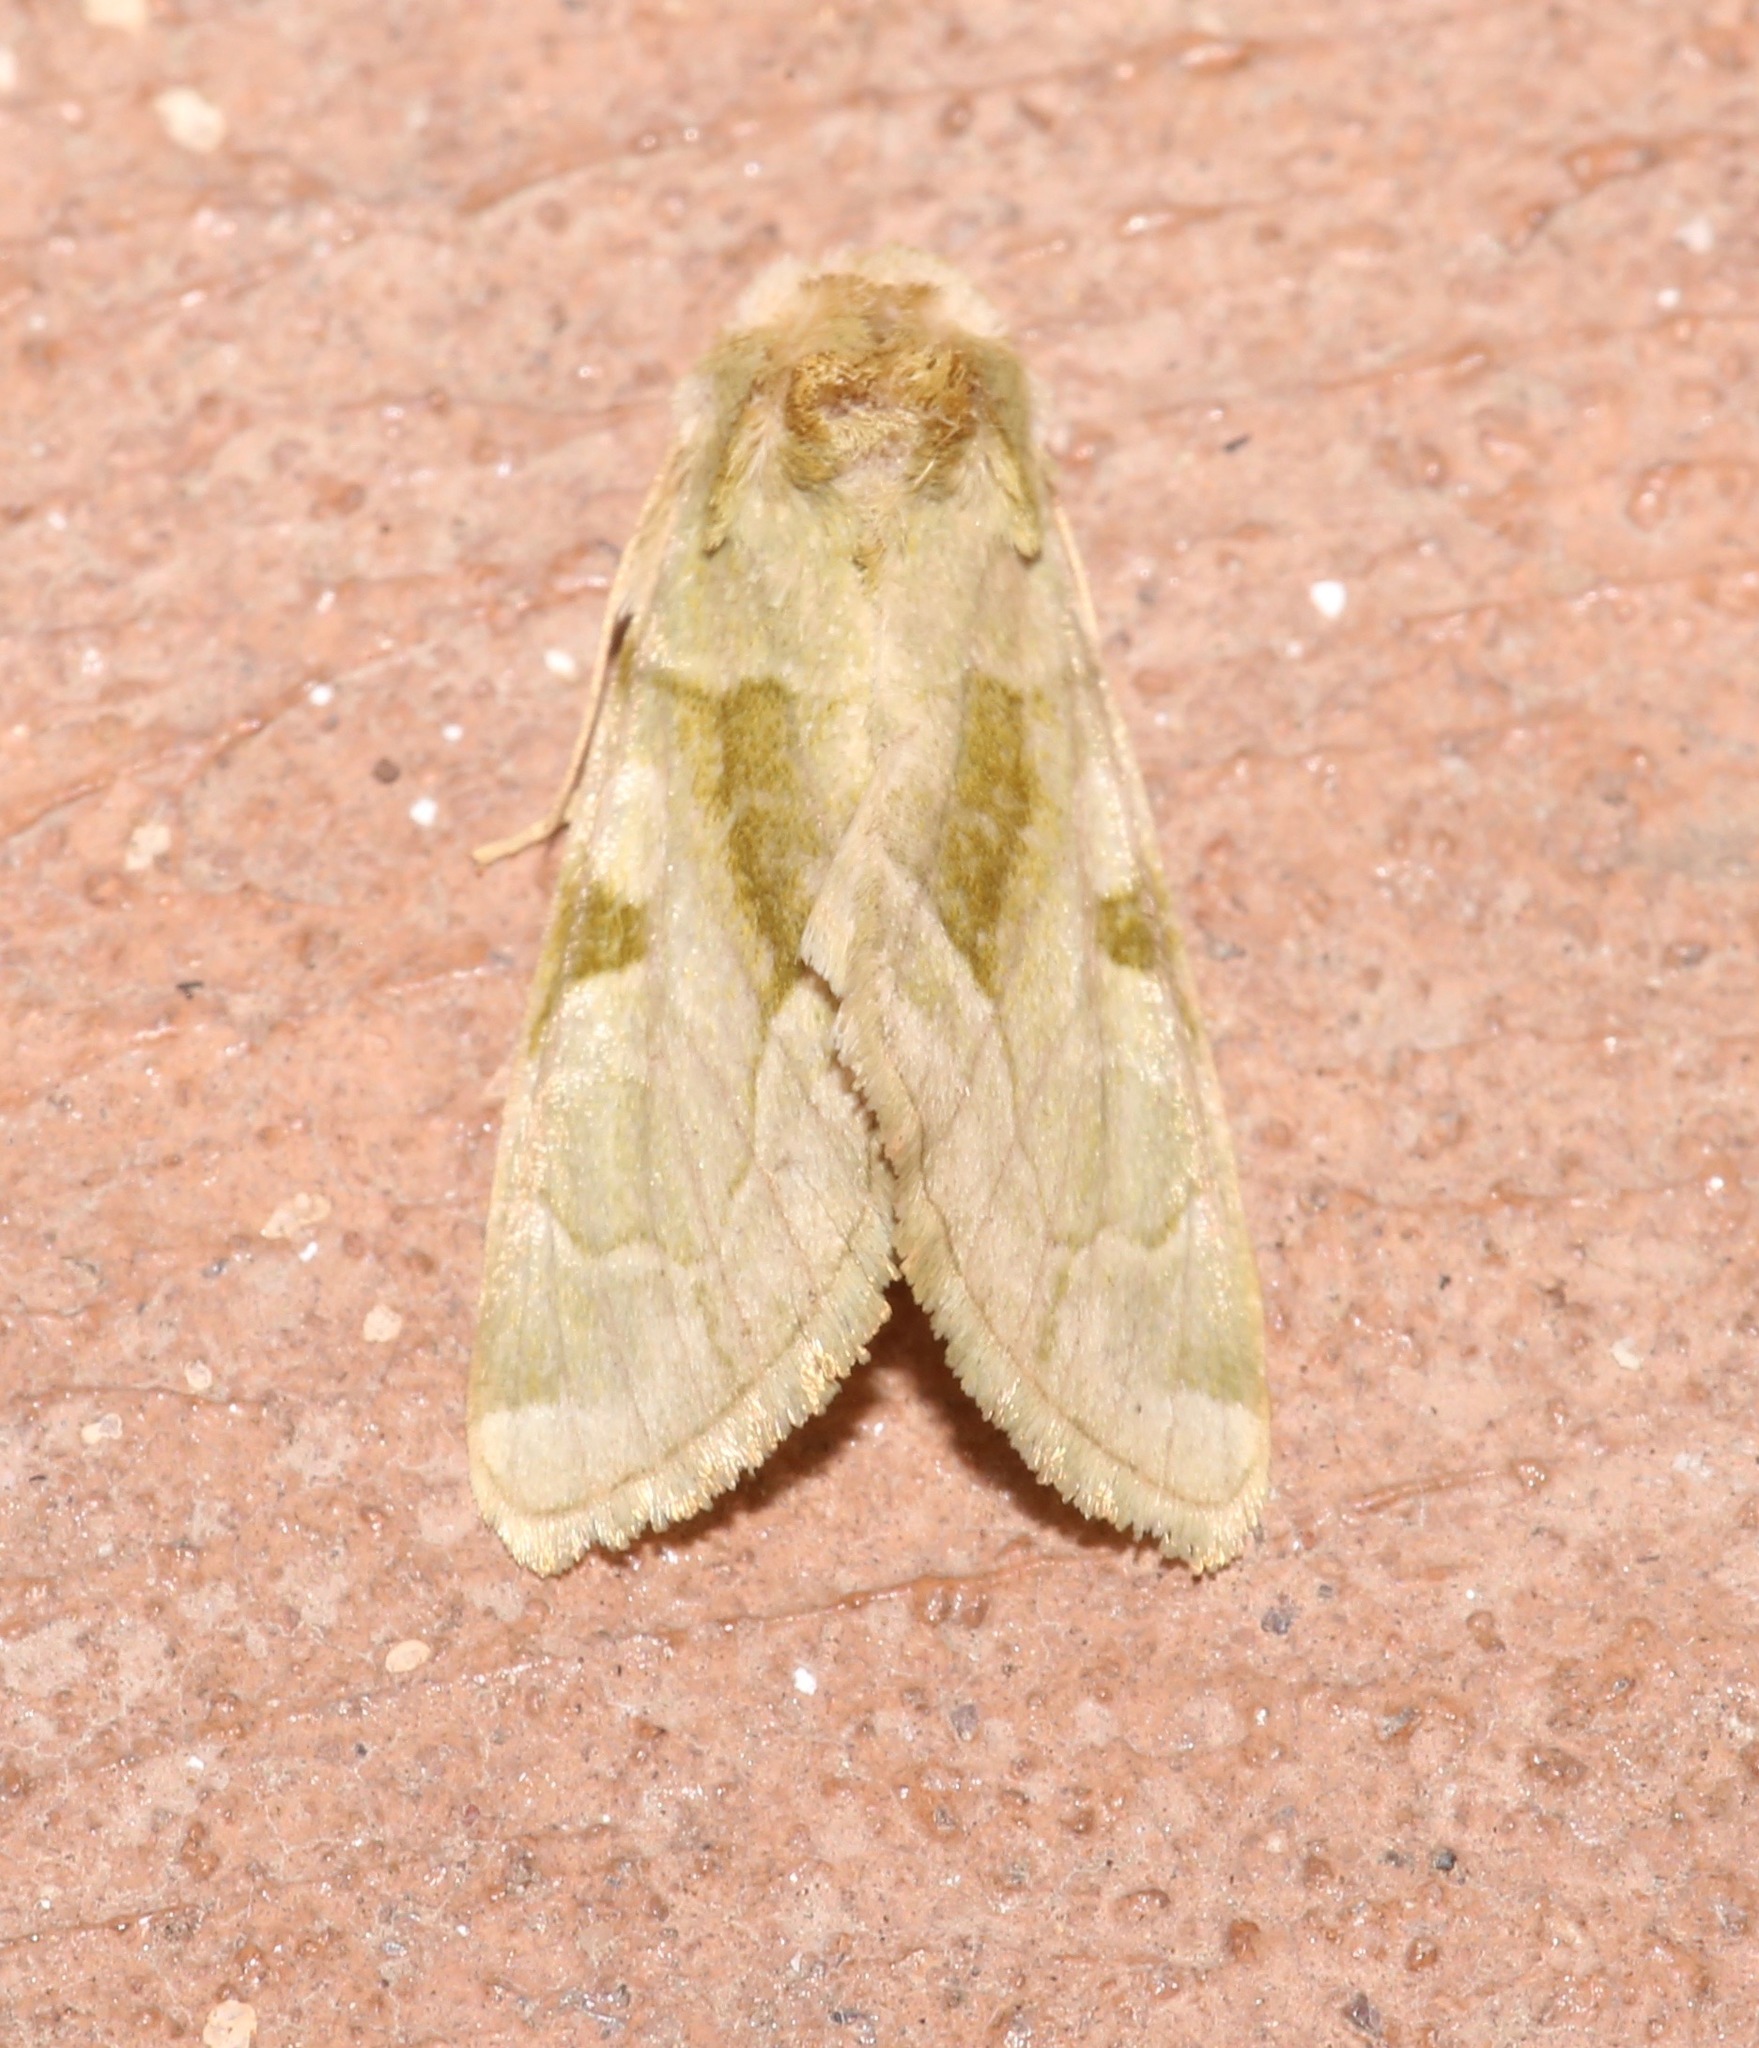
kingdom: Animalia
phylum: Arthropoda
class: Insecta
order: Lepidoptera
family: Noctuidae
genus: Oslaria
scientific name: Oslaria viridifera
